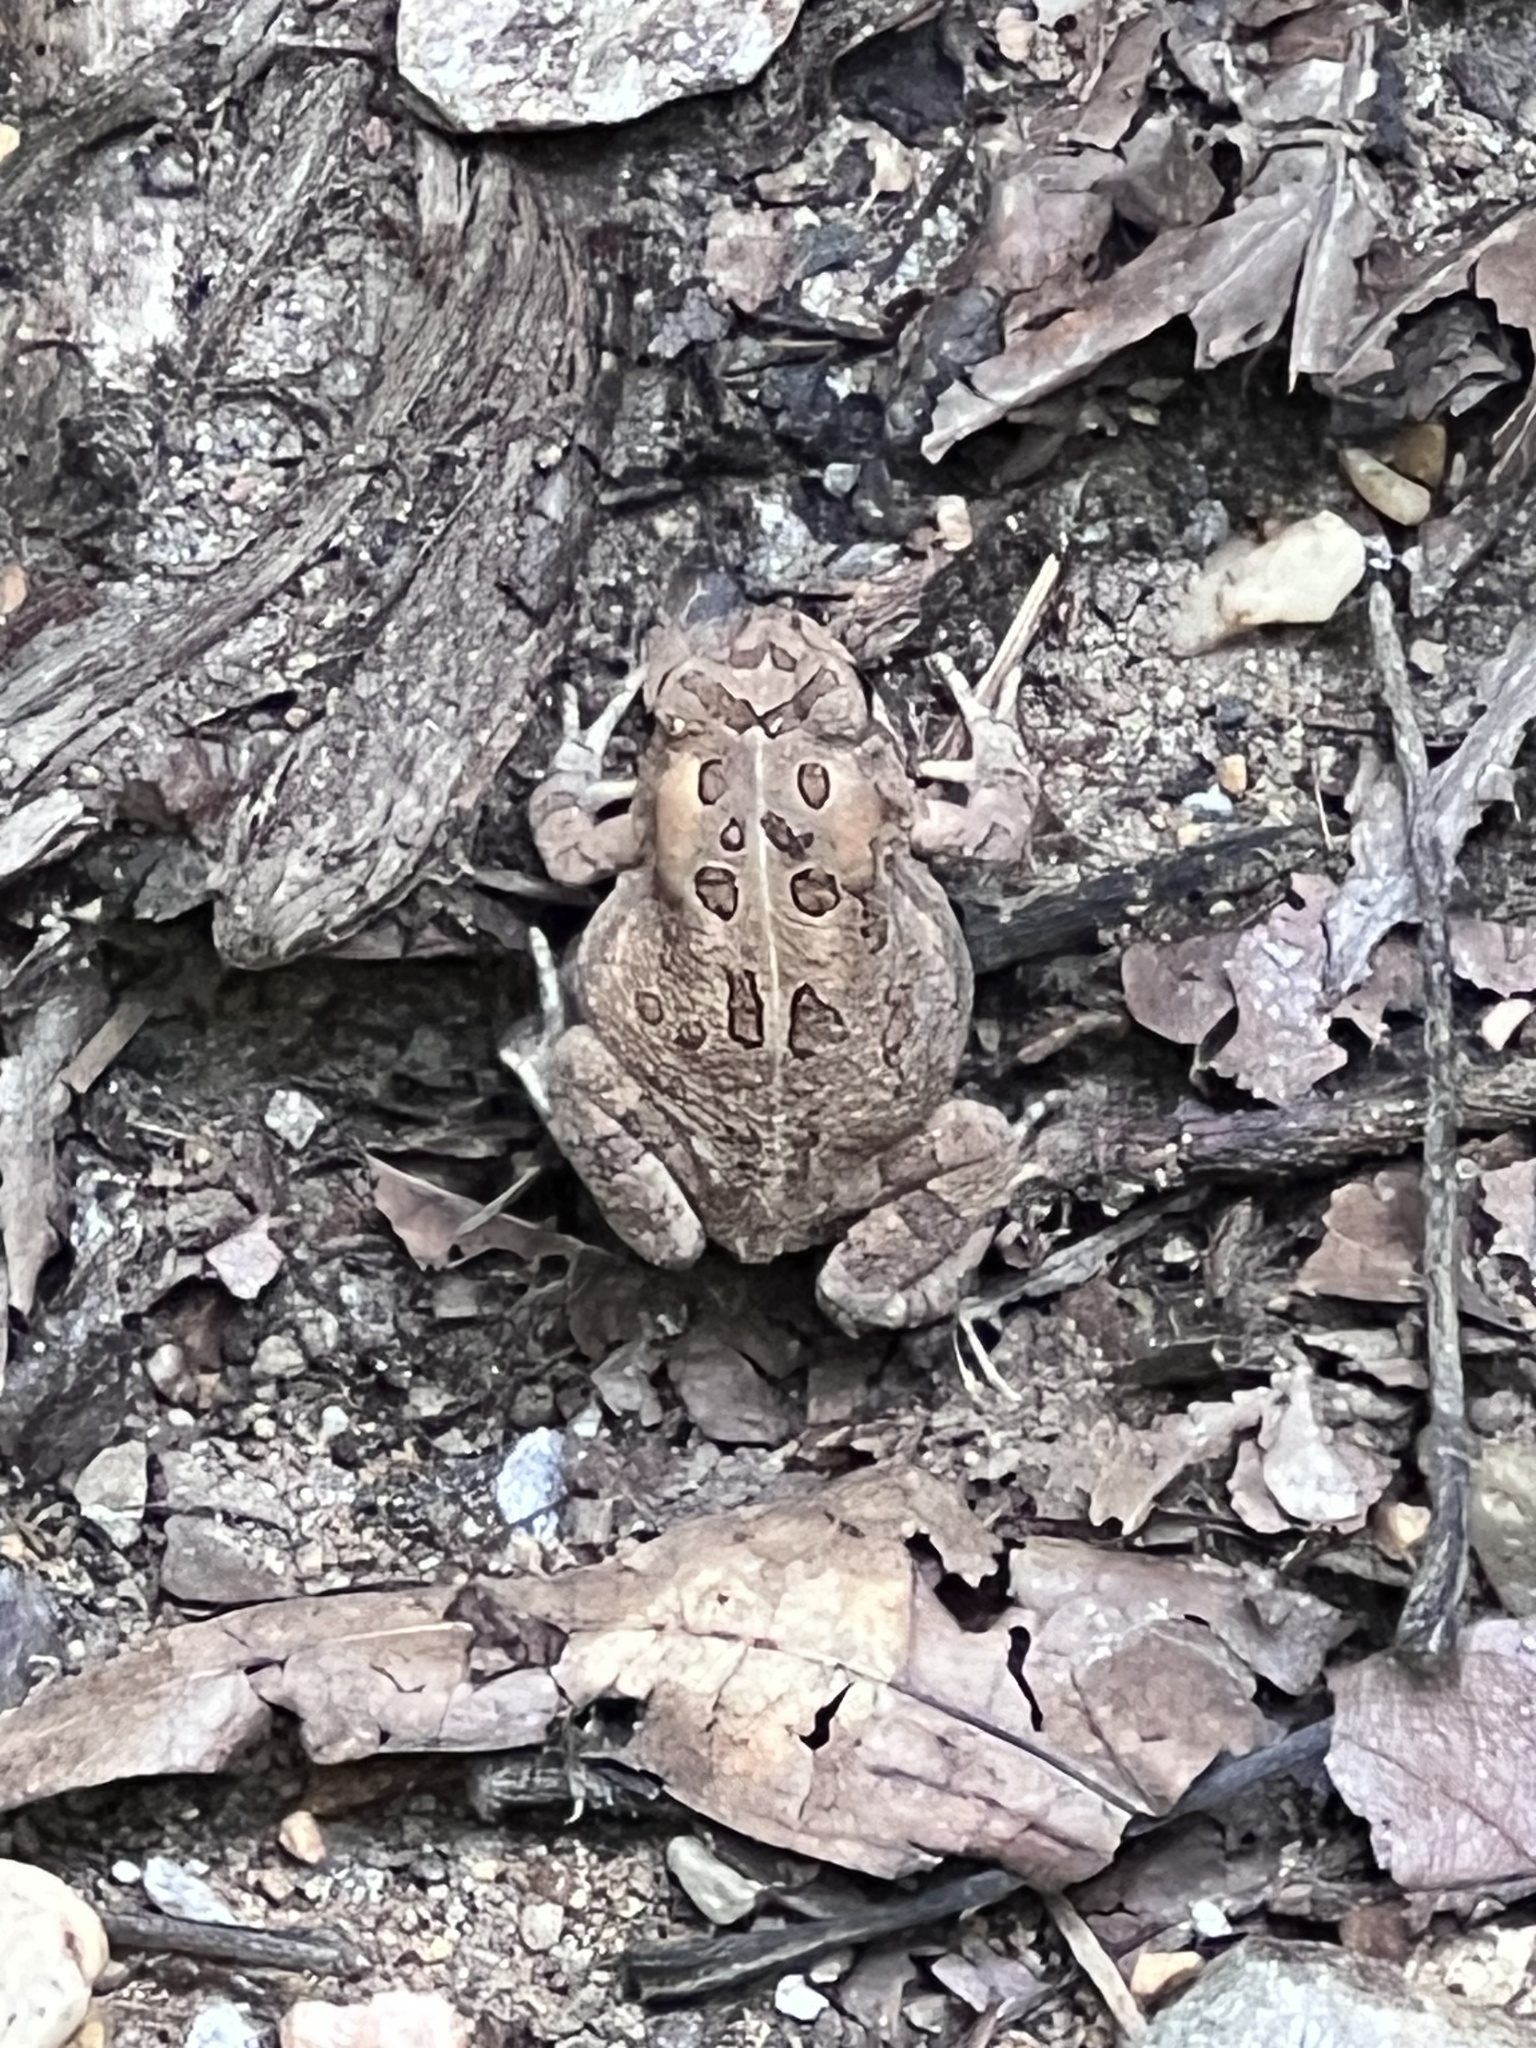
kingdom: Animalia
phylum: Chordata
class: Amphibia
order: Anura
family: Bufonidae
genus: Anaxyrus
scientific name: Anaxyrus fowleri
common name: Fowler's toad
